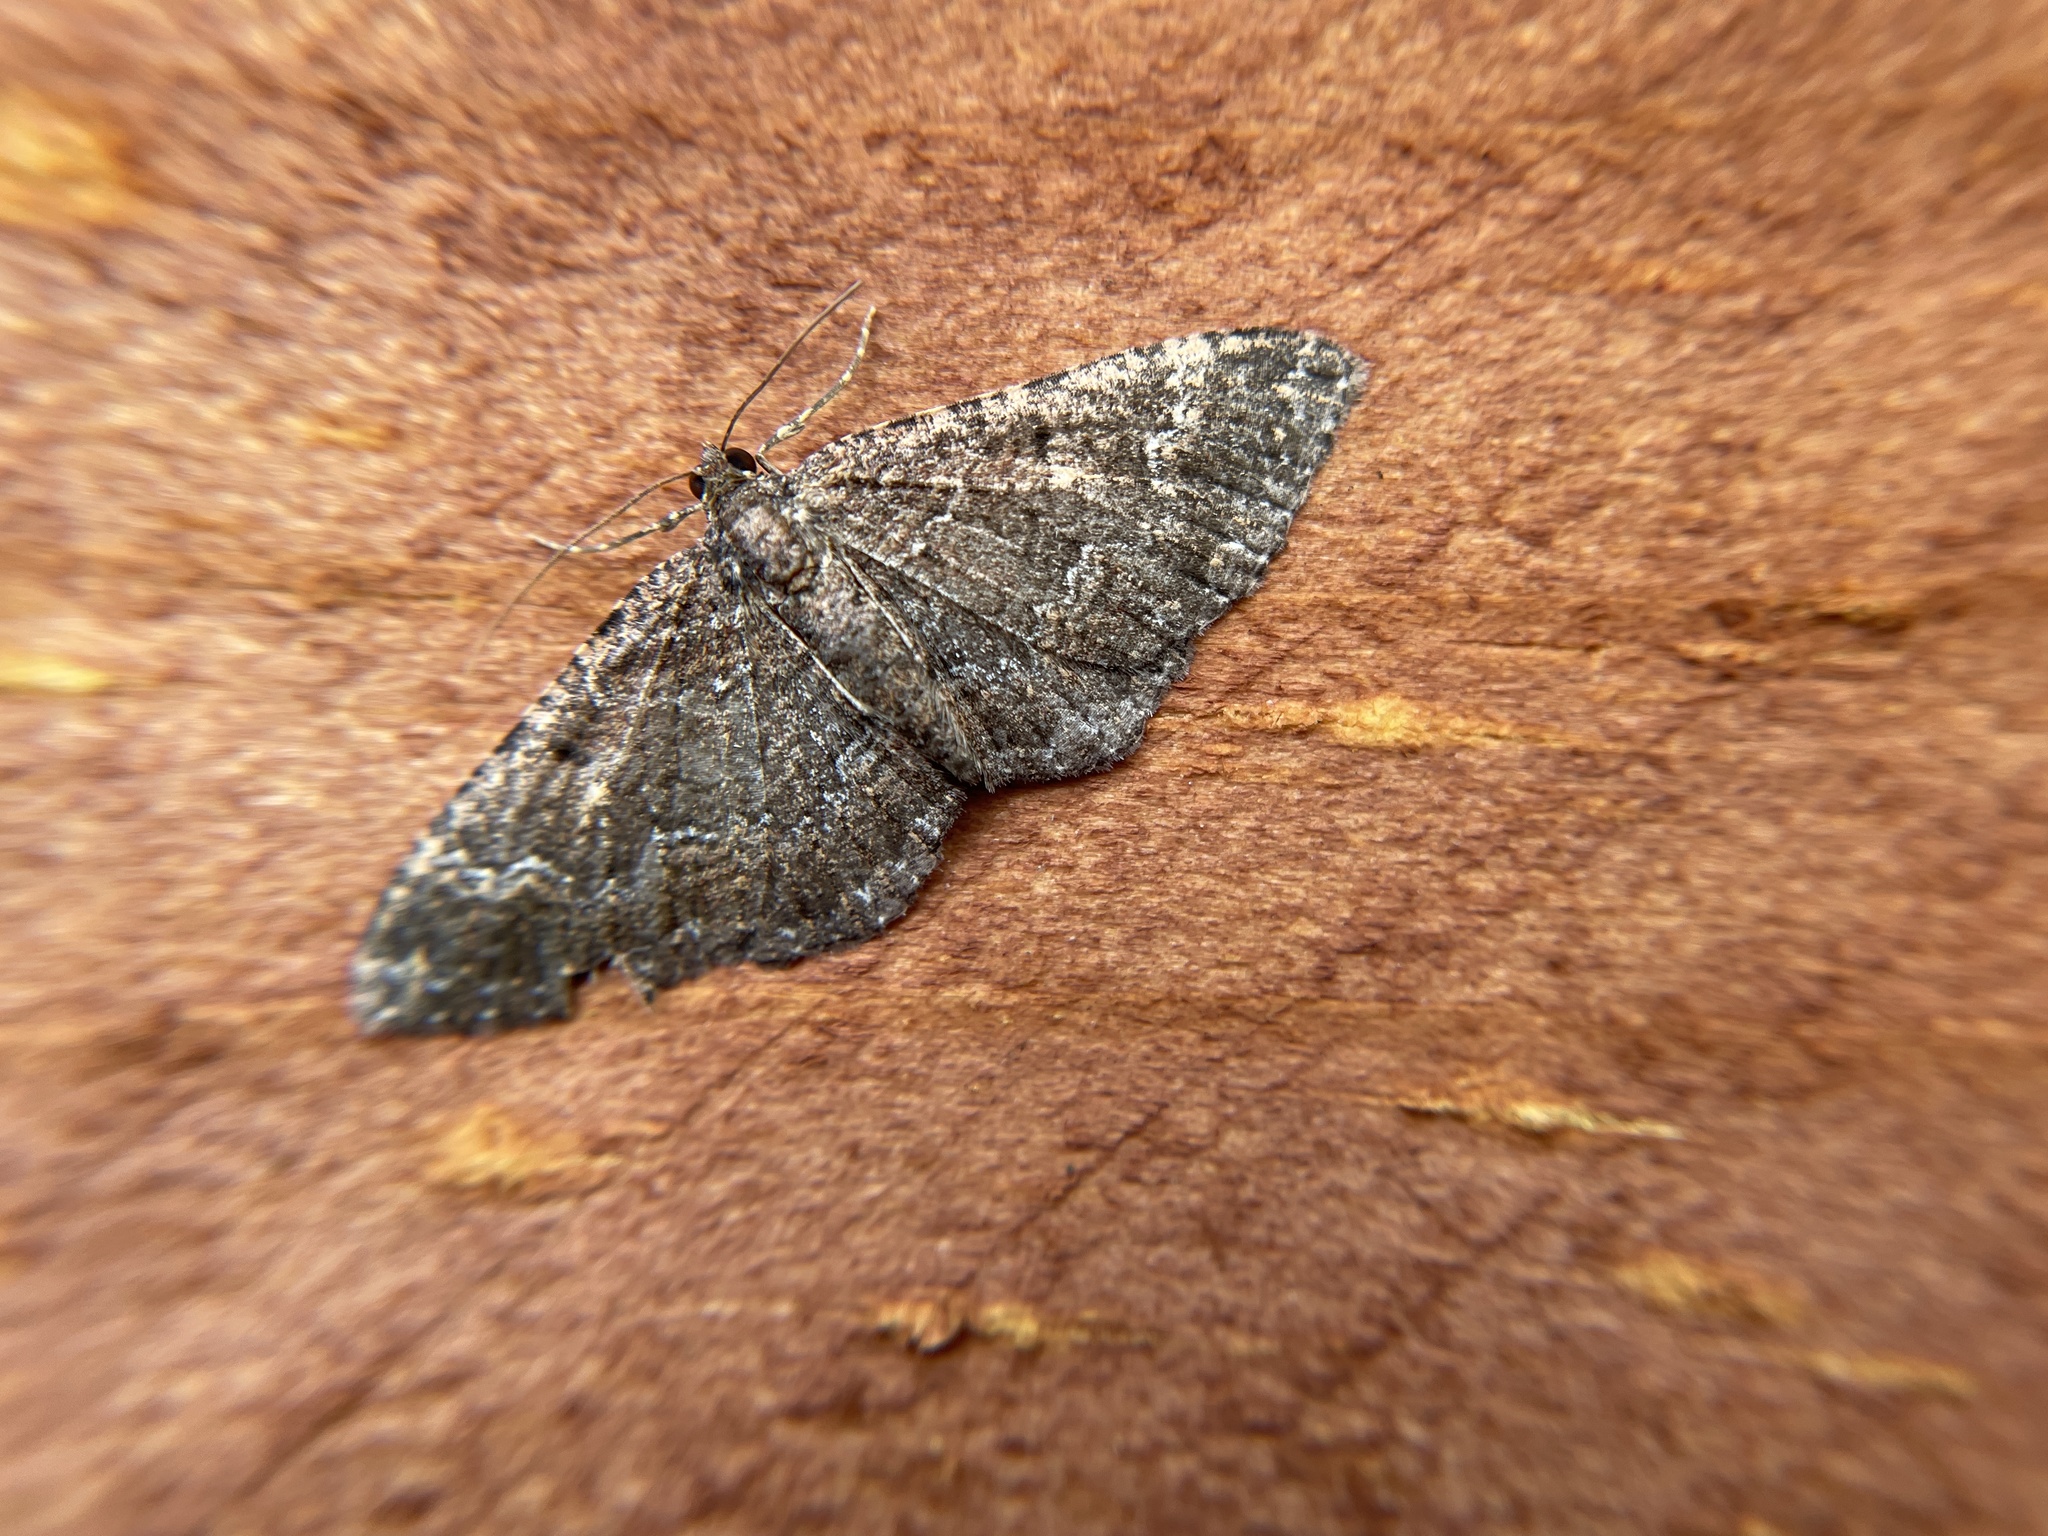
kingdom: Animalia
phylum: Arthropoda
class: Insecta
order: Lepidoptera
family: Geometridae
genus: Disclisioprocta
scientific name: Disclisioprocta stellata
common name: Somber carpet
